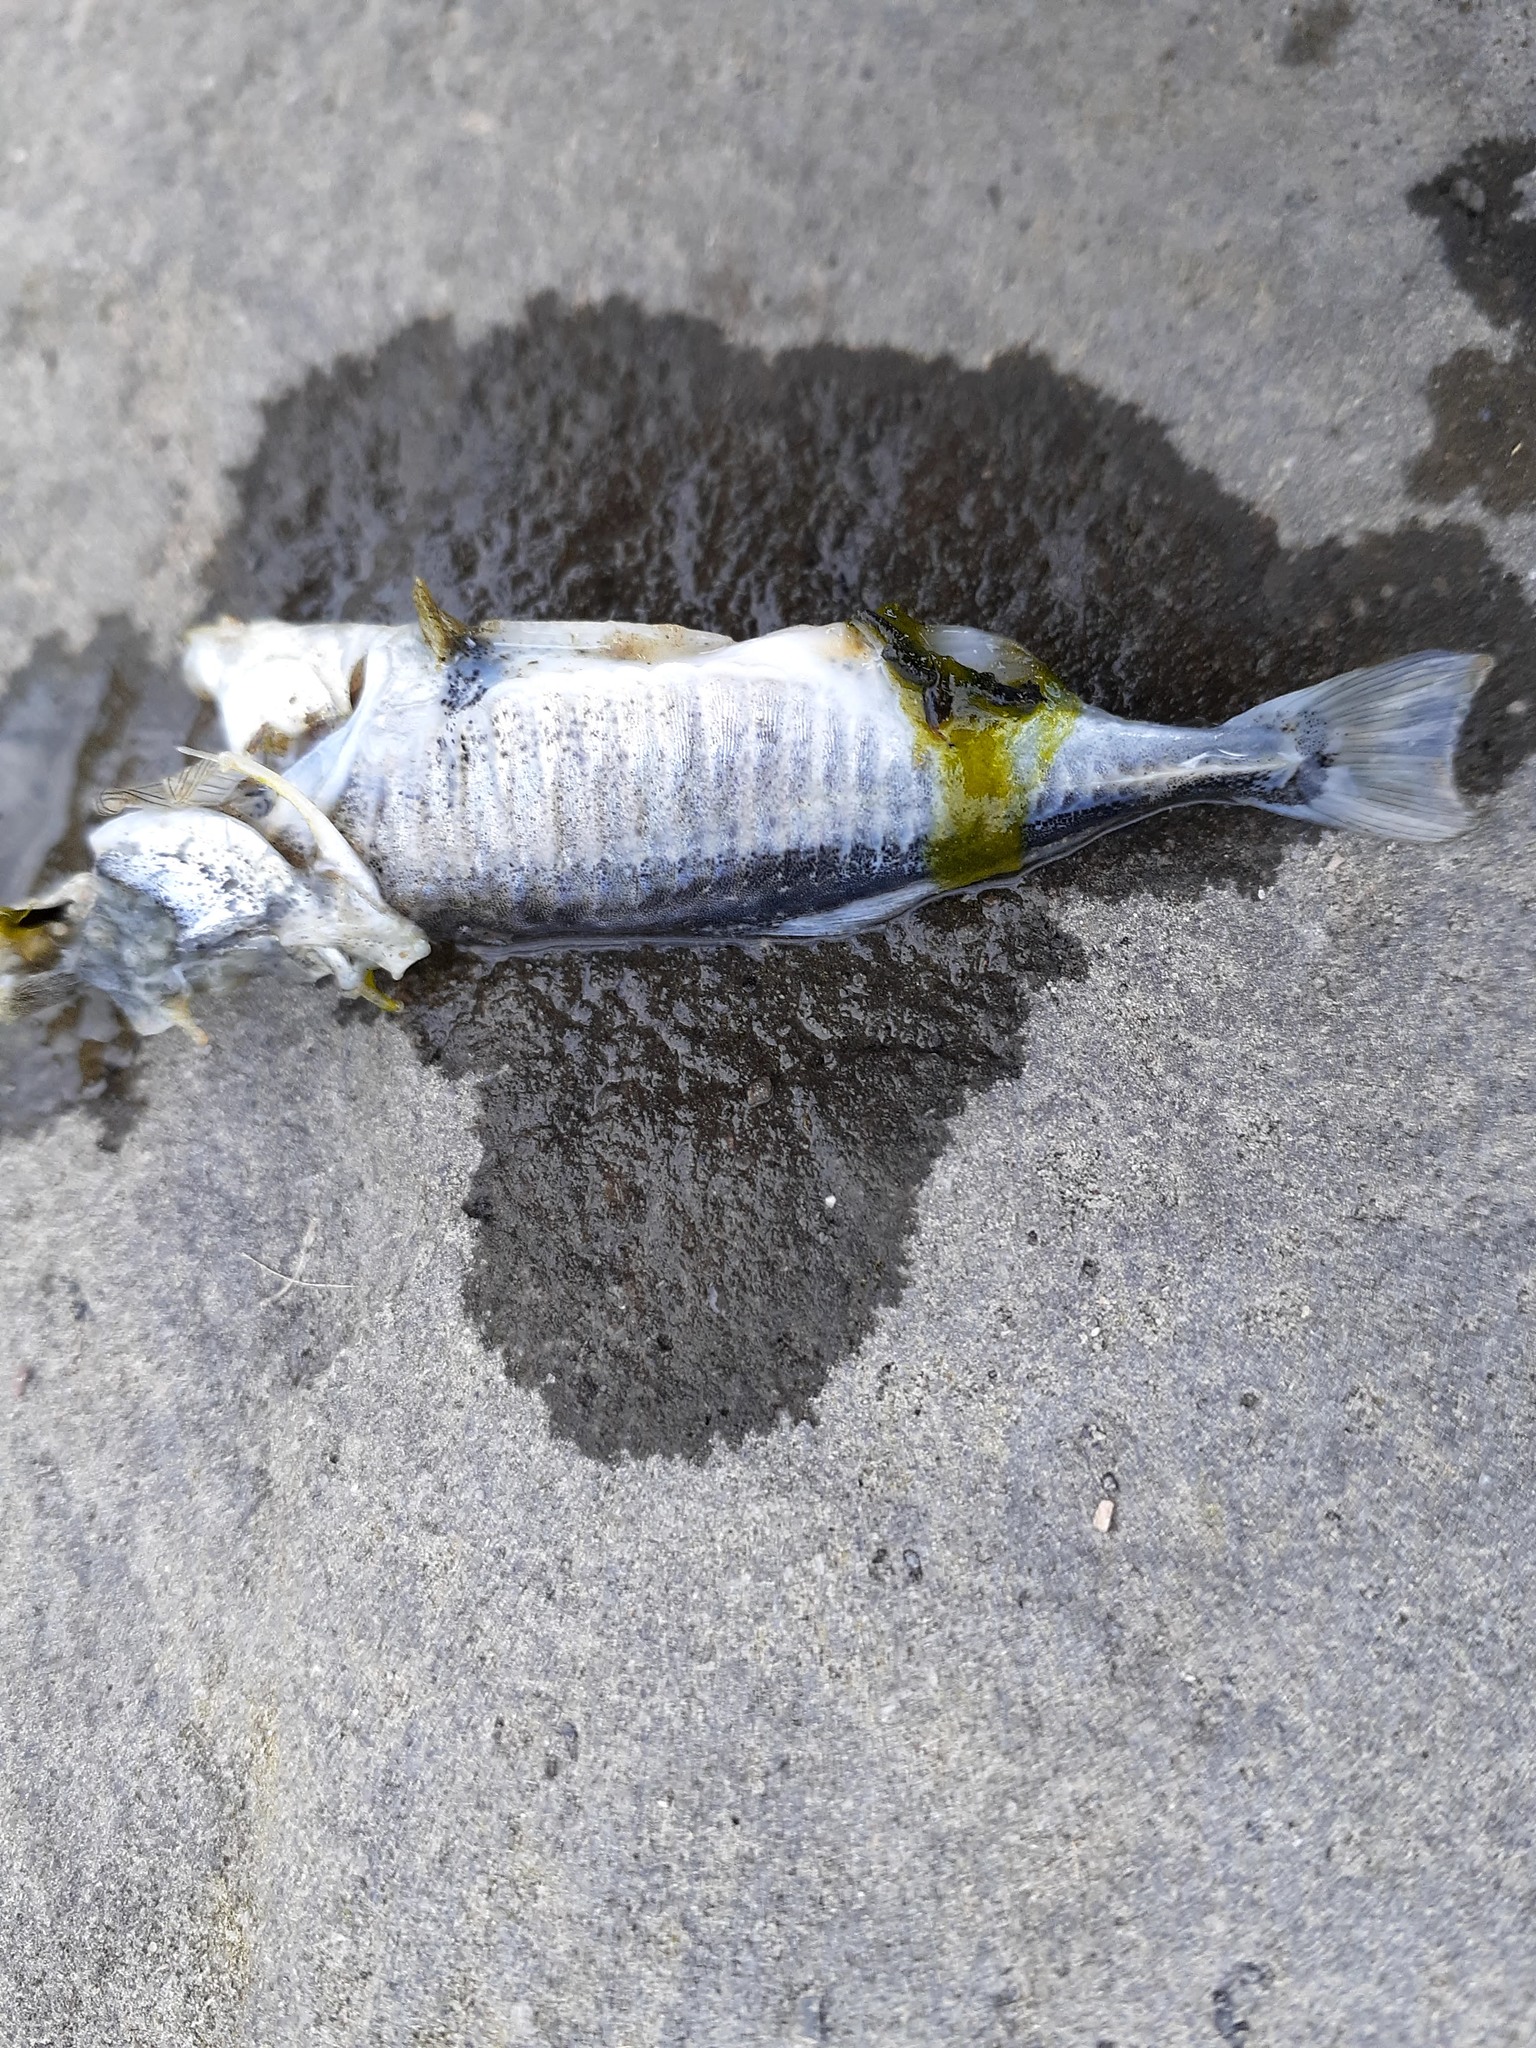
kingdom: Animalia
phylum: Chordata
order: Gasterosteiformes
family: Gasterosteidae
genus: Gasterosteus
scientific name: Gasterosteus aculeatus
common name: Three-spined stickleback
